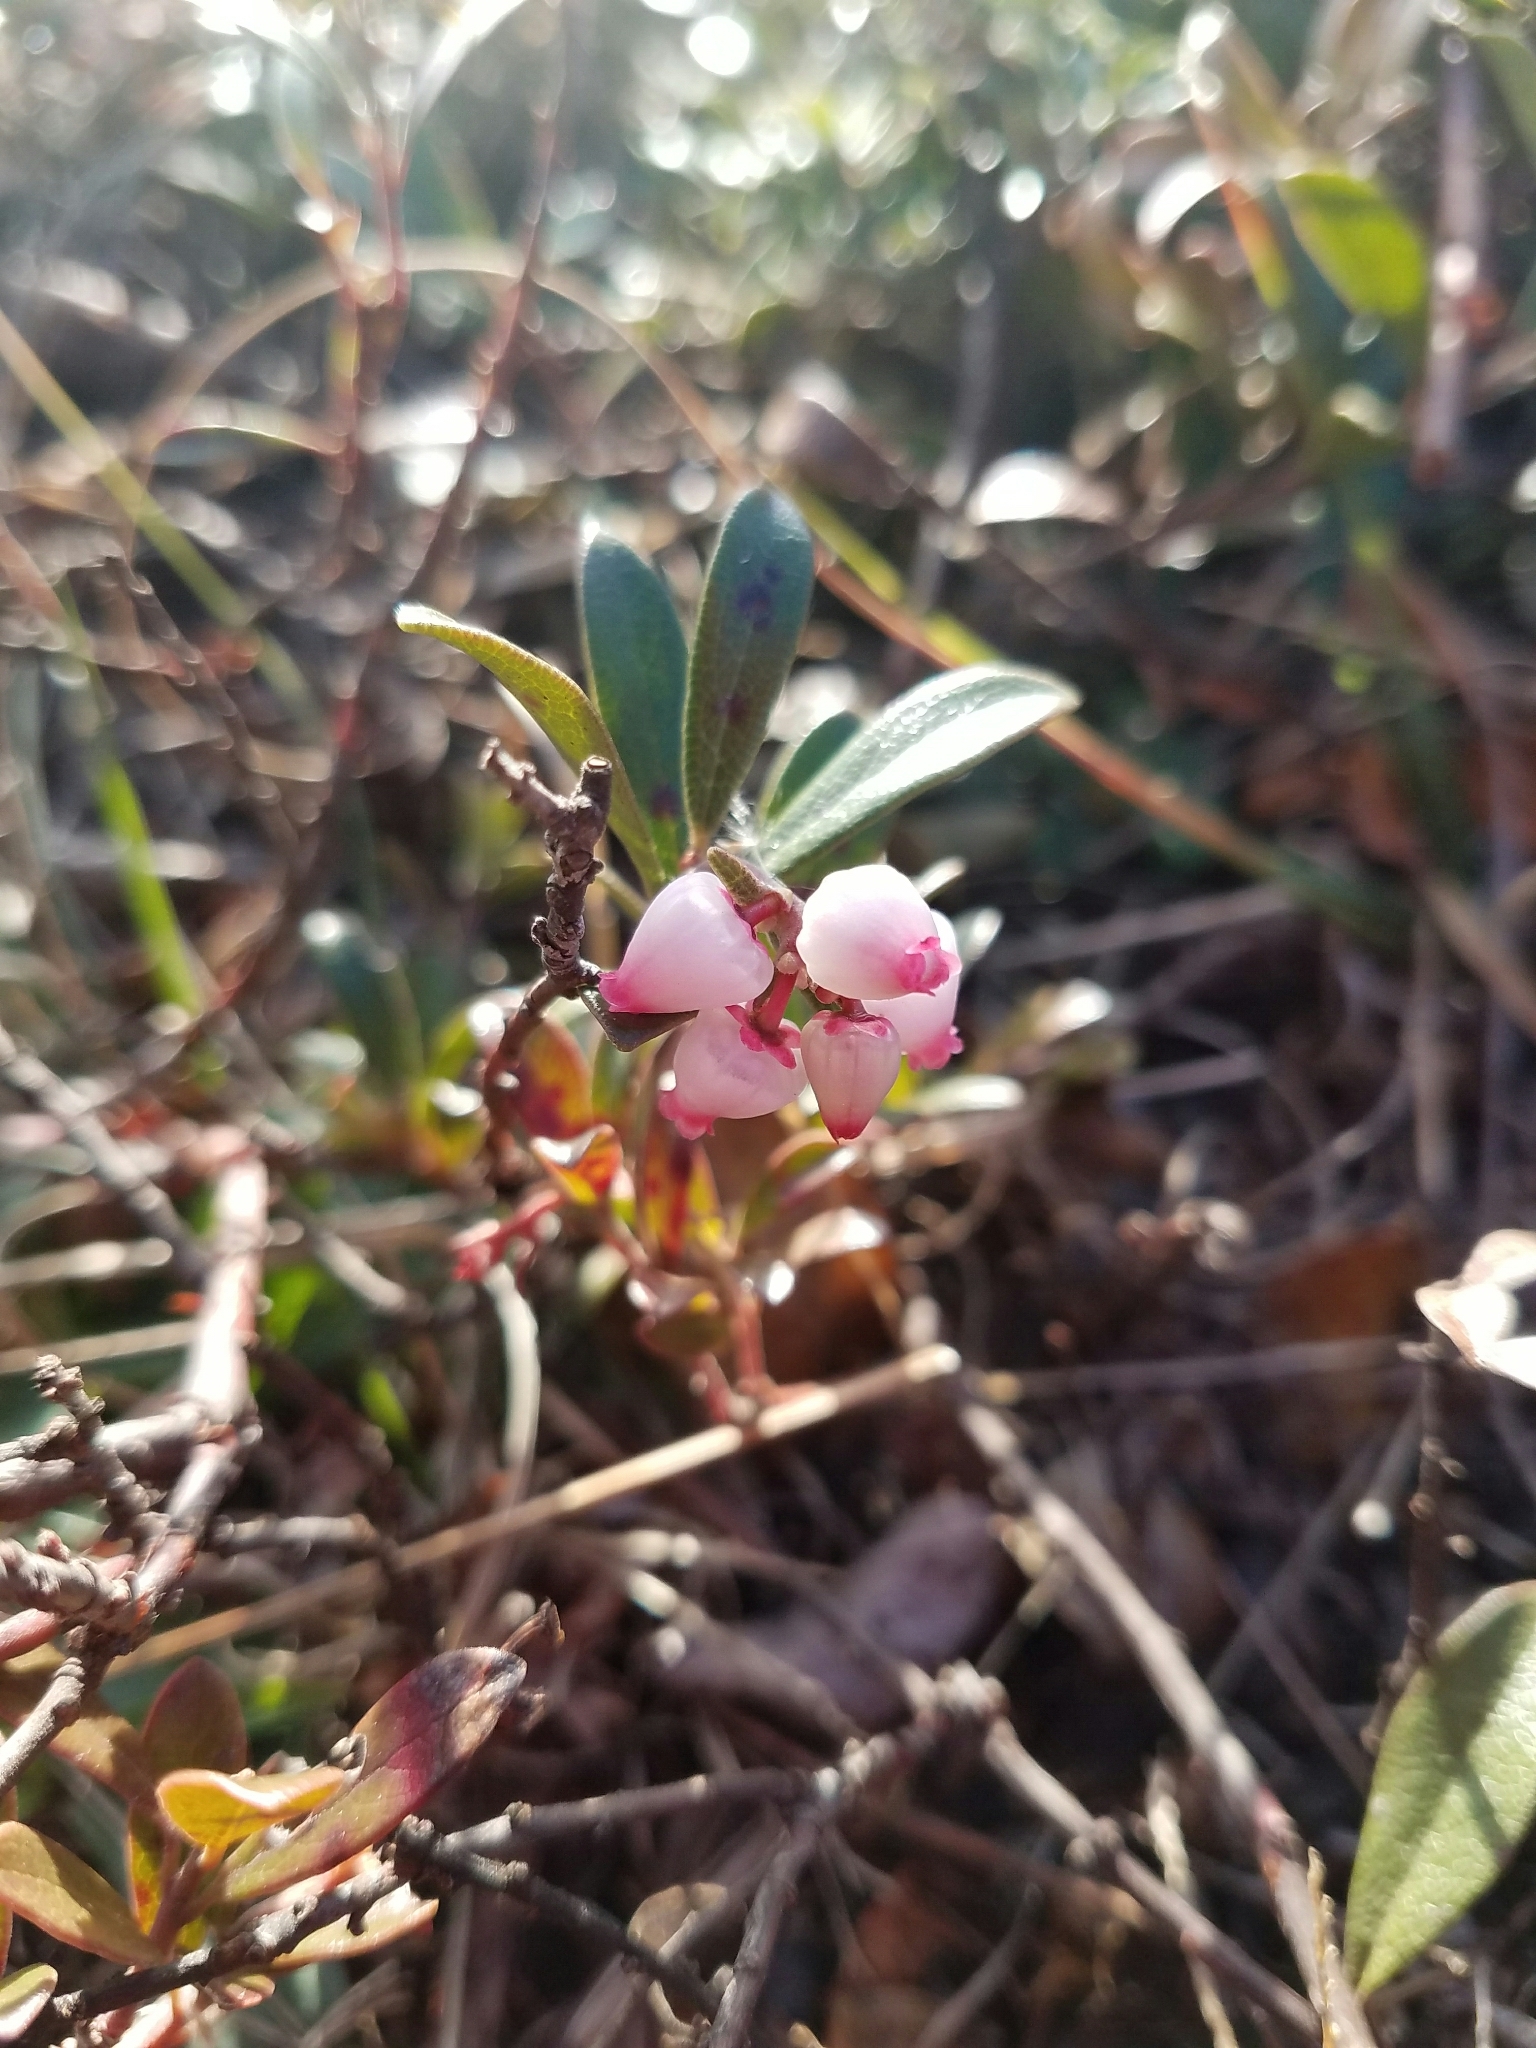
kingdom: Plantae
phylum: Tracheophyta
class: Magnoliopsida
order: Ericales
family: Ericaceae
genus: Arctostaphylos
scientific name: Arctostaphylos uva-ursi
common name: Bearberry
